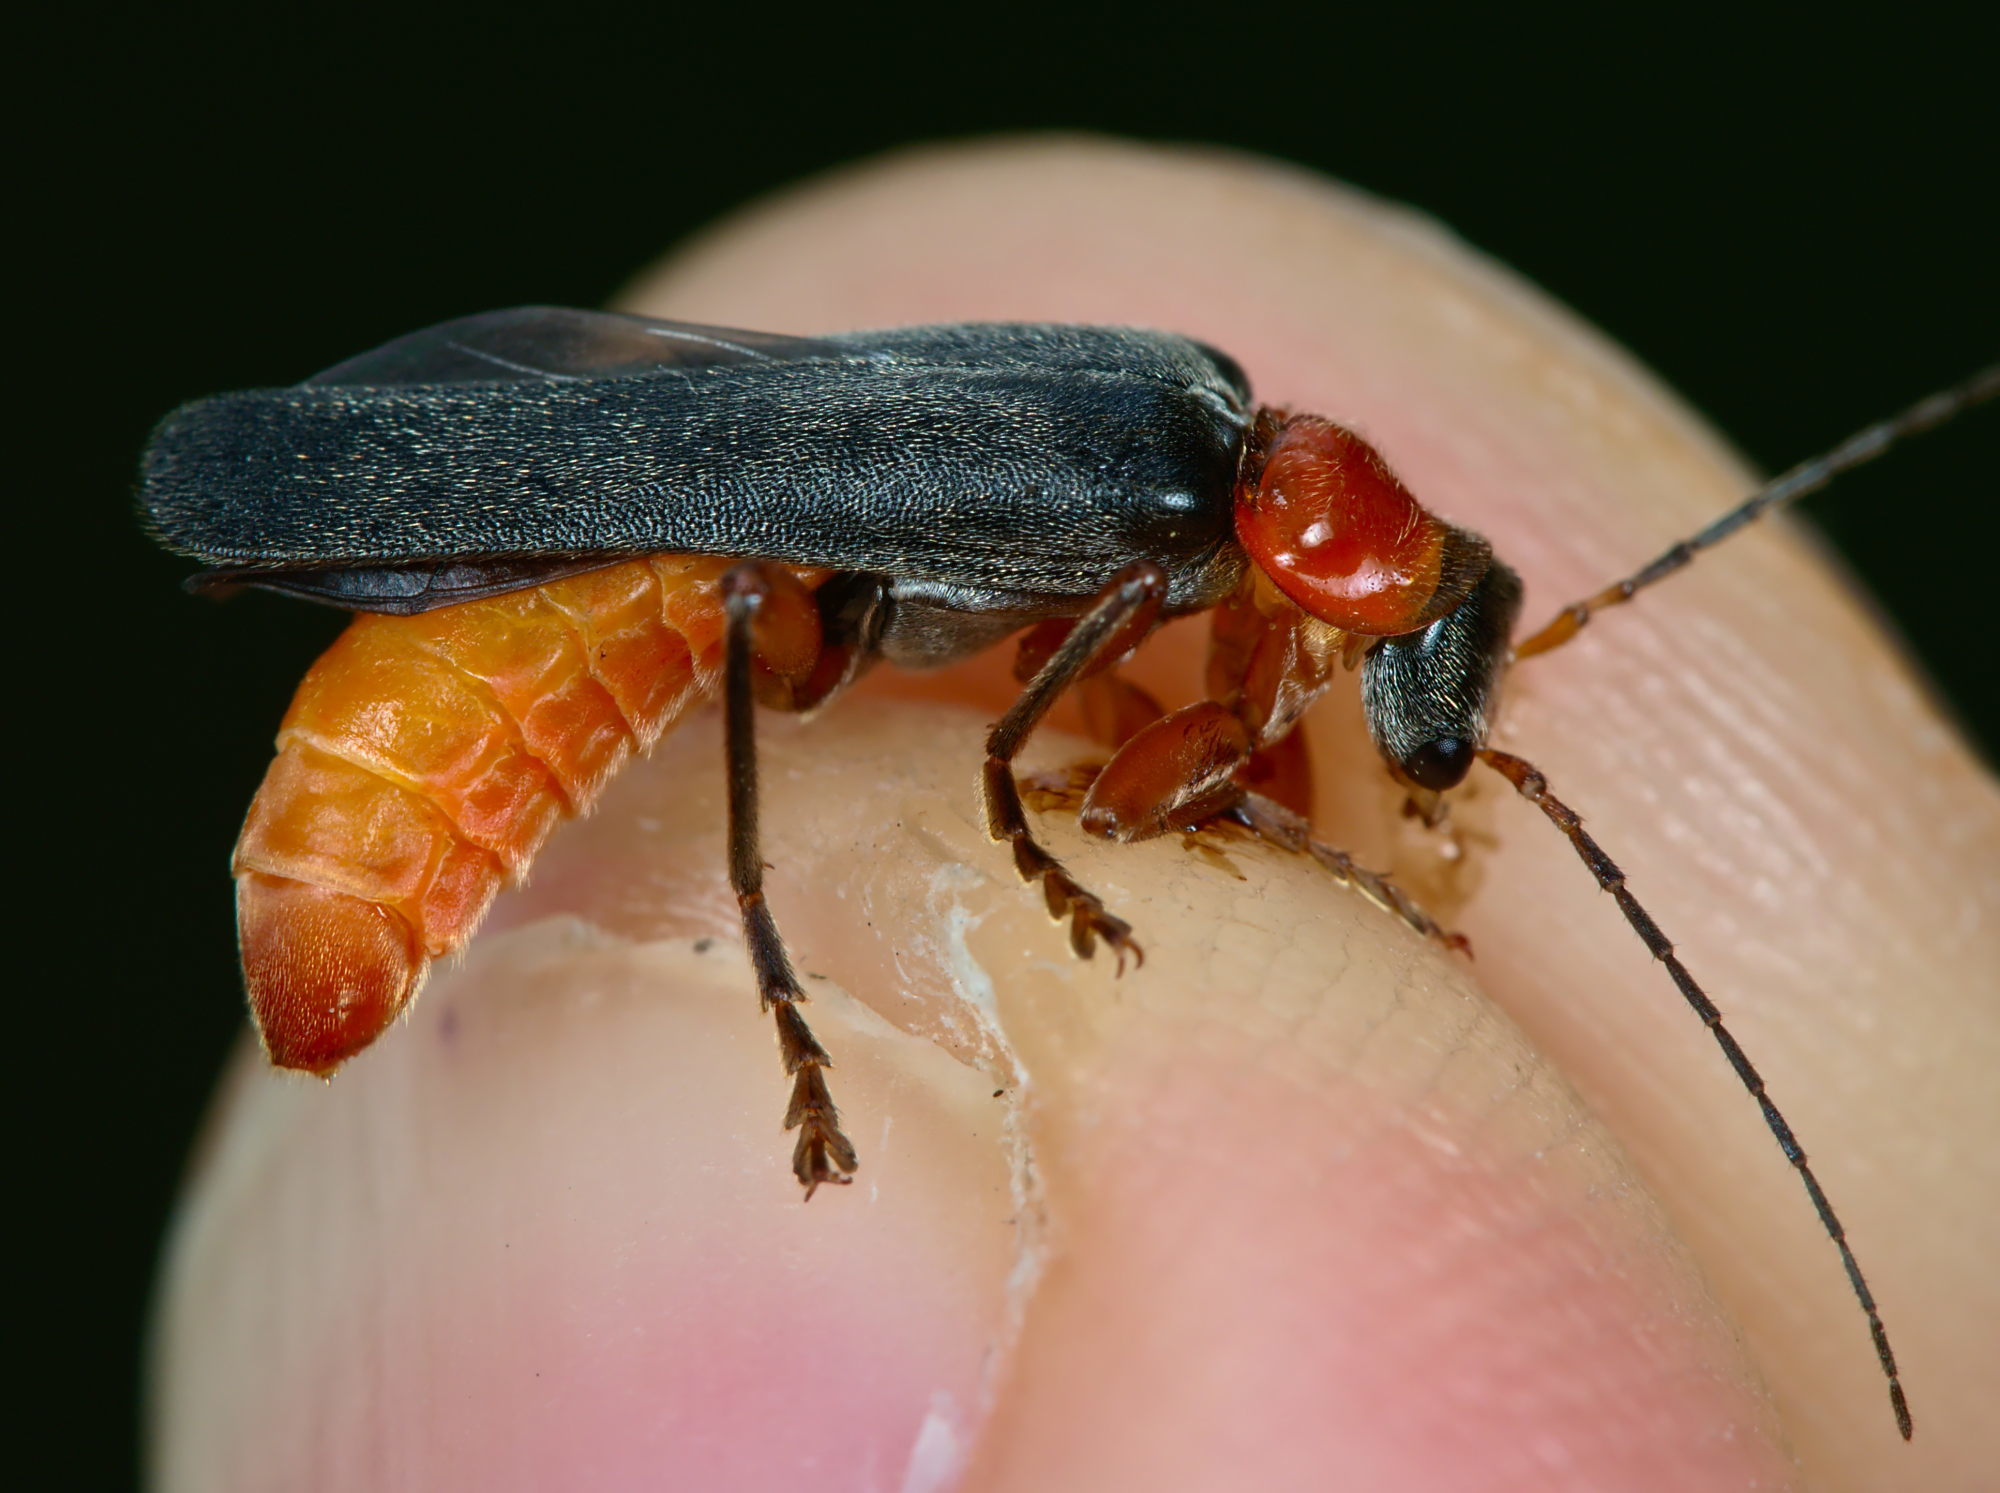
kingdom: Animalia
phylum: Arthropoda
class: Insecta
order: Coleoptera
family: Cantharidae
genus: Cantharis
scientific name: Cantharis pellucida
